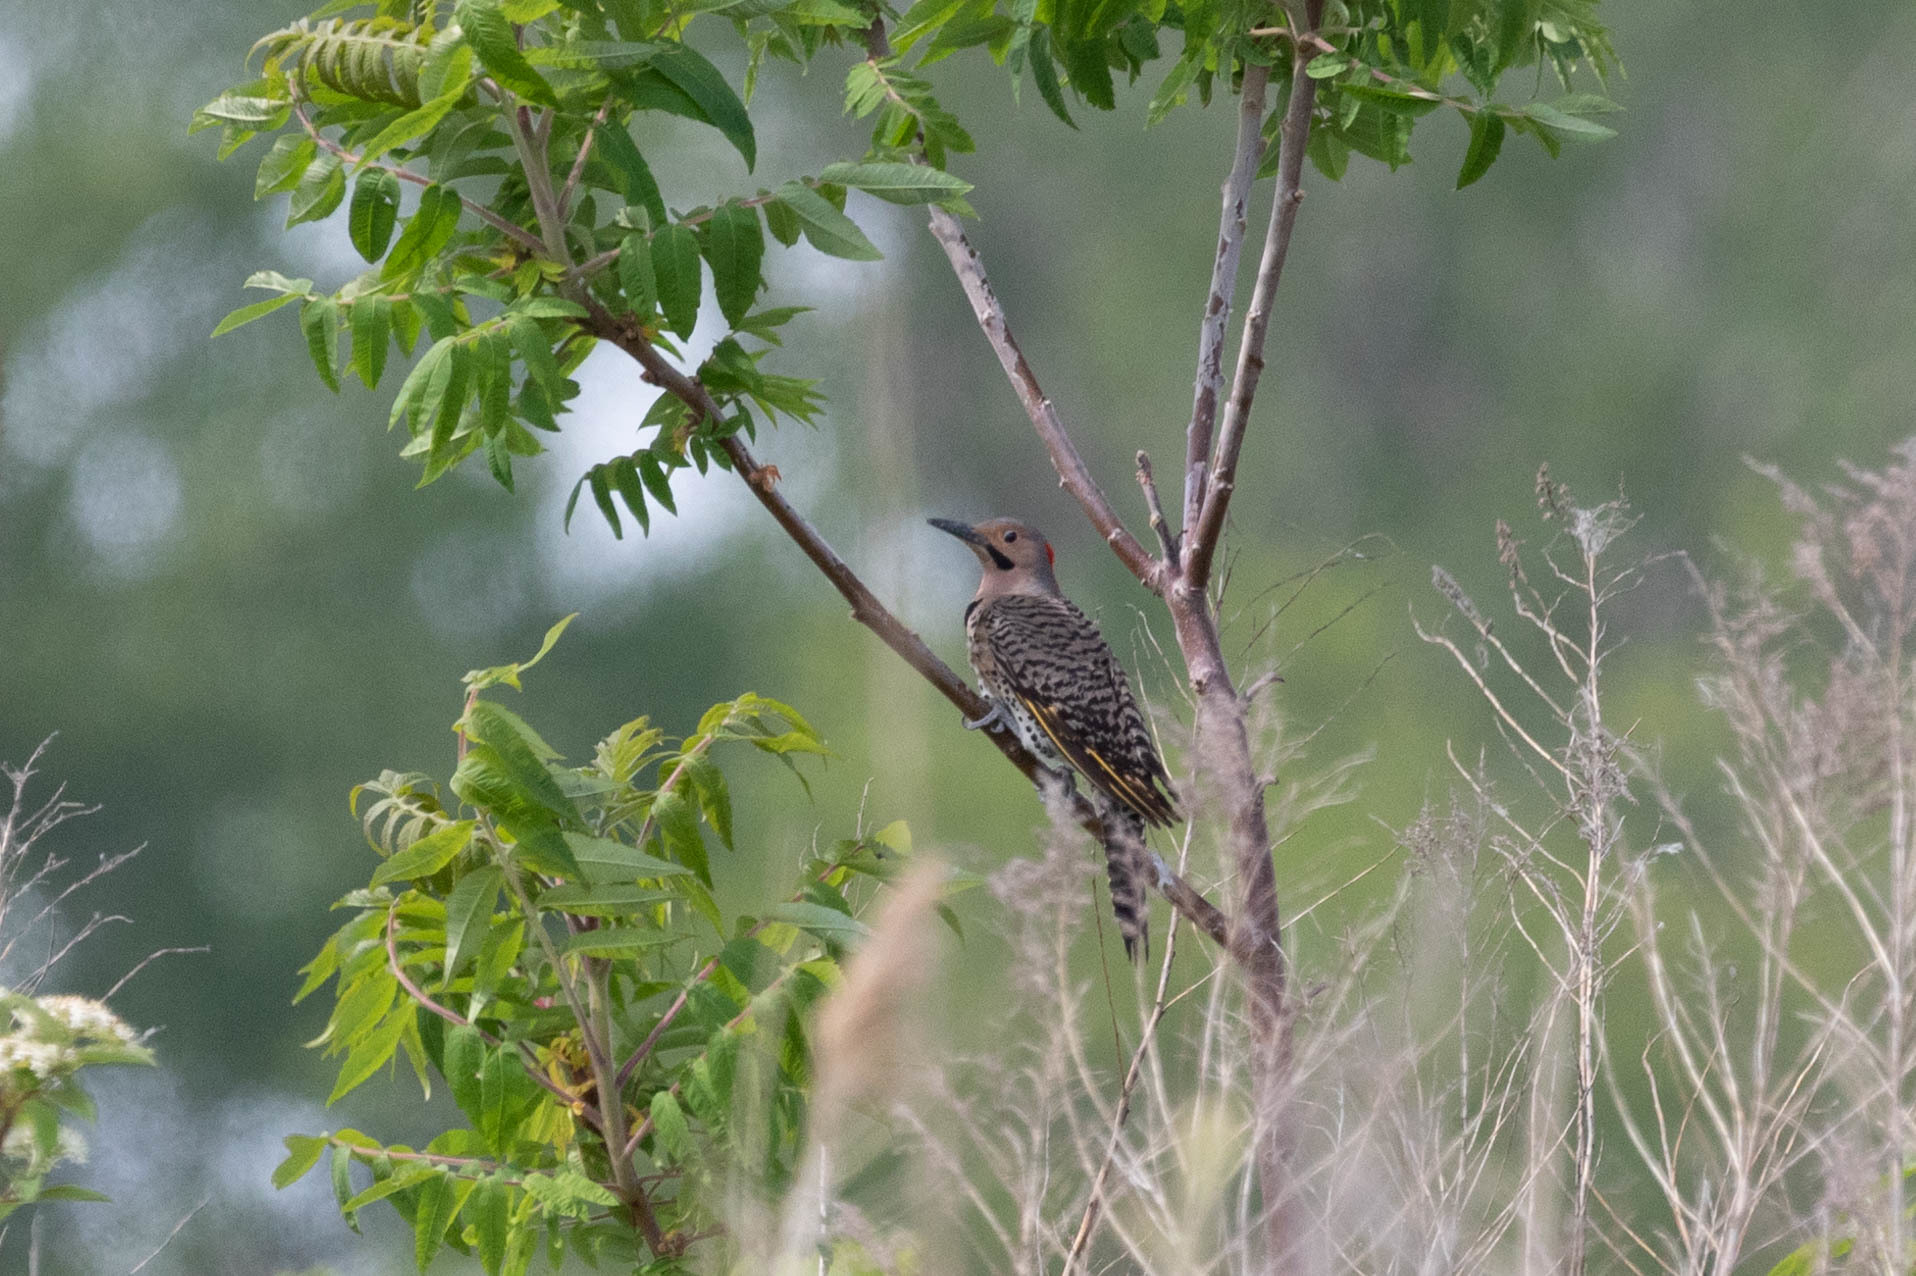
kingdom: Animalia
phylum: Chordata
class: Aves
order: Piciformes
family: Picidae
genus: Colaptes
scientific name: Colaptes auratus
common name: Northern flicker
